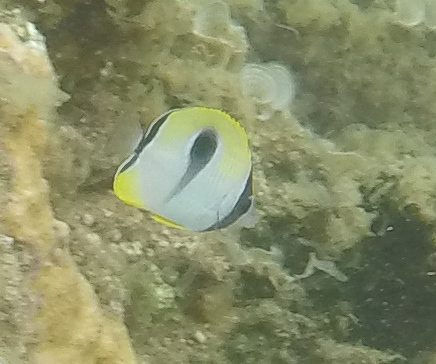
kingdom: Animalia
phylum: Chordata
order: Perciformes
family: Chaetodontidae
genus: Chaetodon
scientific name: Chaetodon unimaculatus
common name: Teardrop butterflyfish
